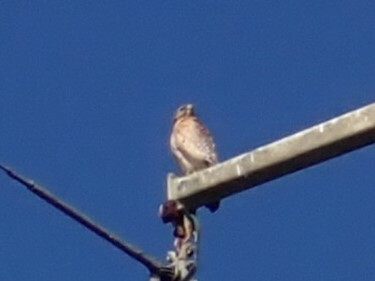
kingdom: Animalia
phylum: Chordata
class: Aves
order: Accipitriformes
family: Accipitridae
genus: Buteo
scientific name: Buteo lineatus
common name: Red-shouldered hawk
